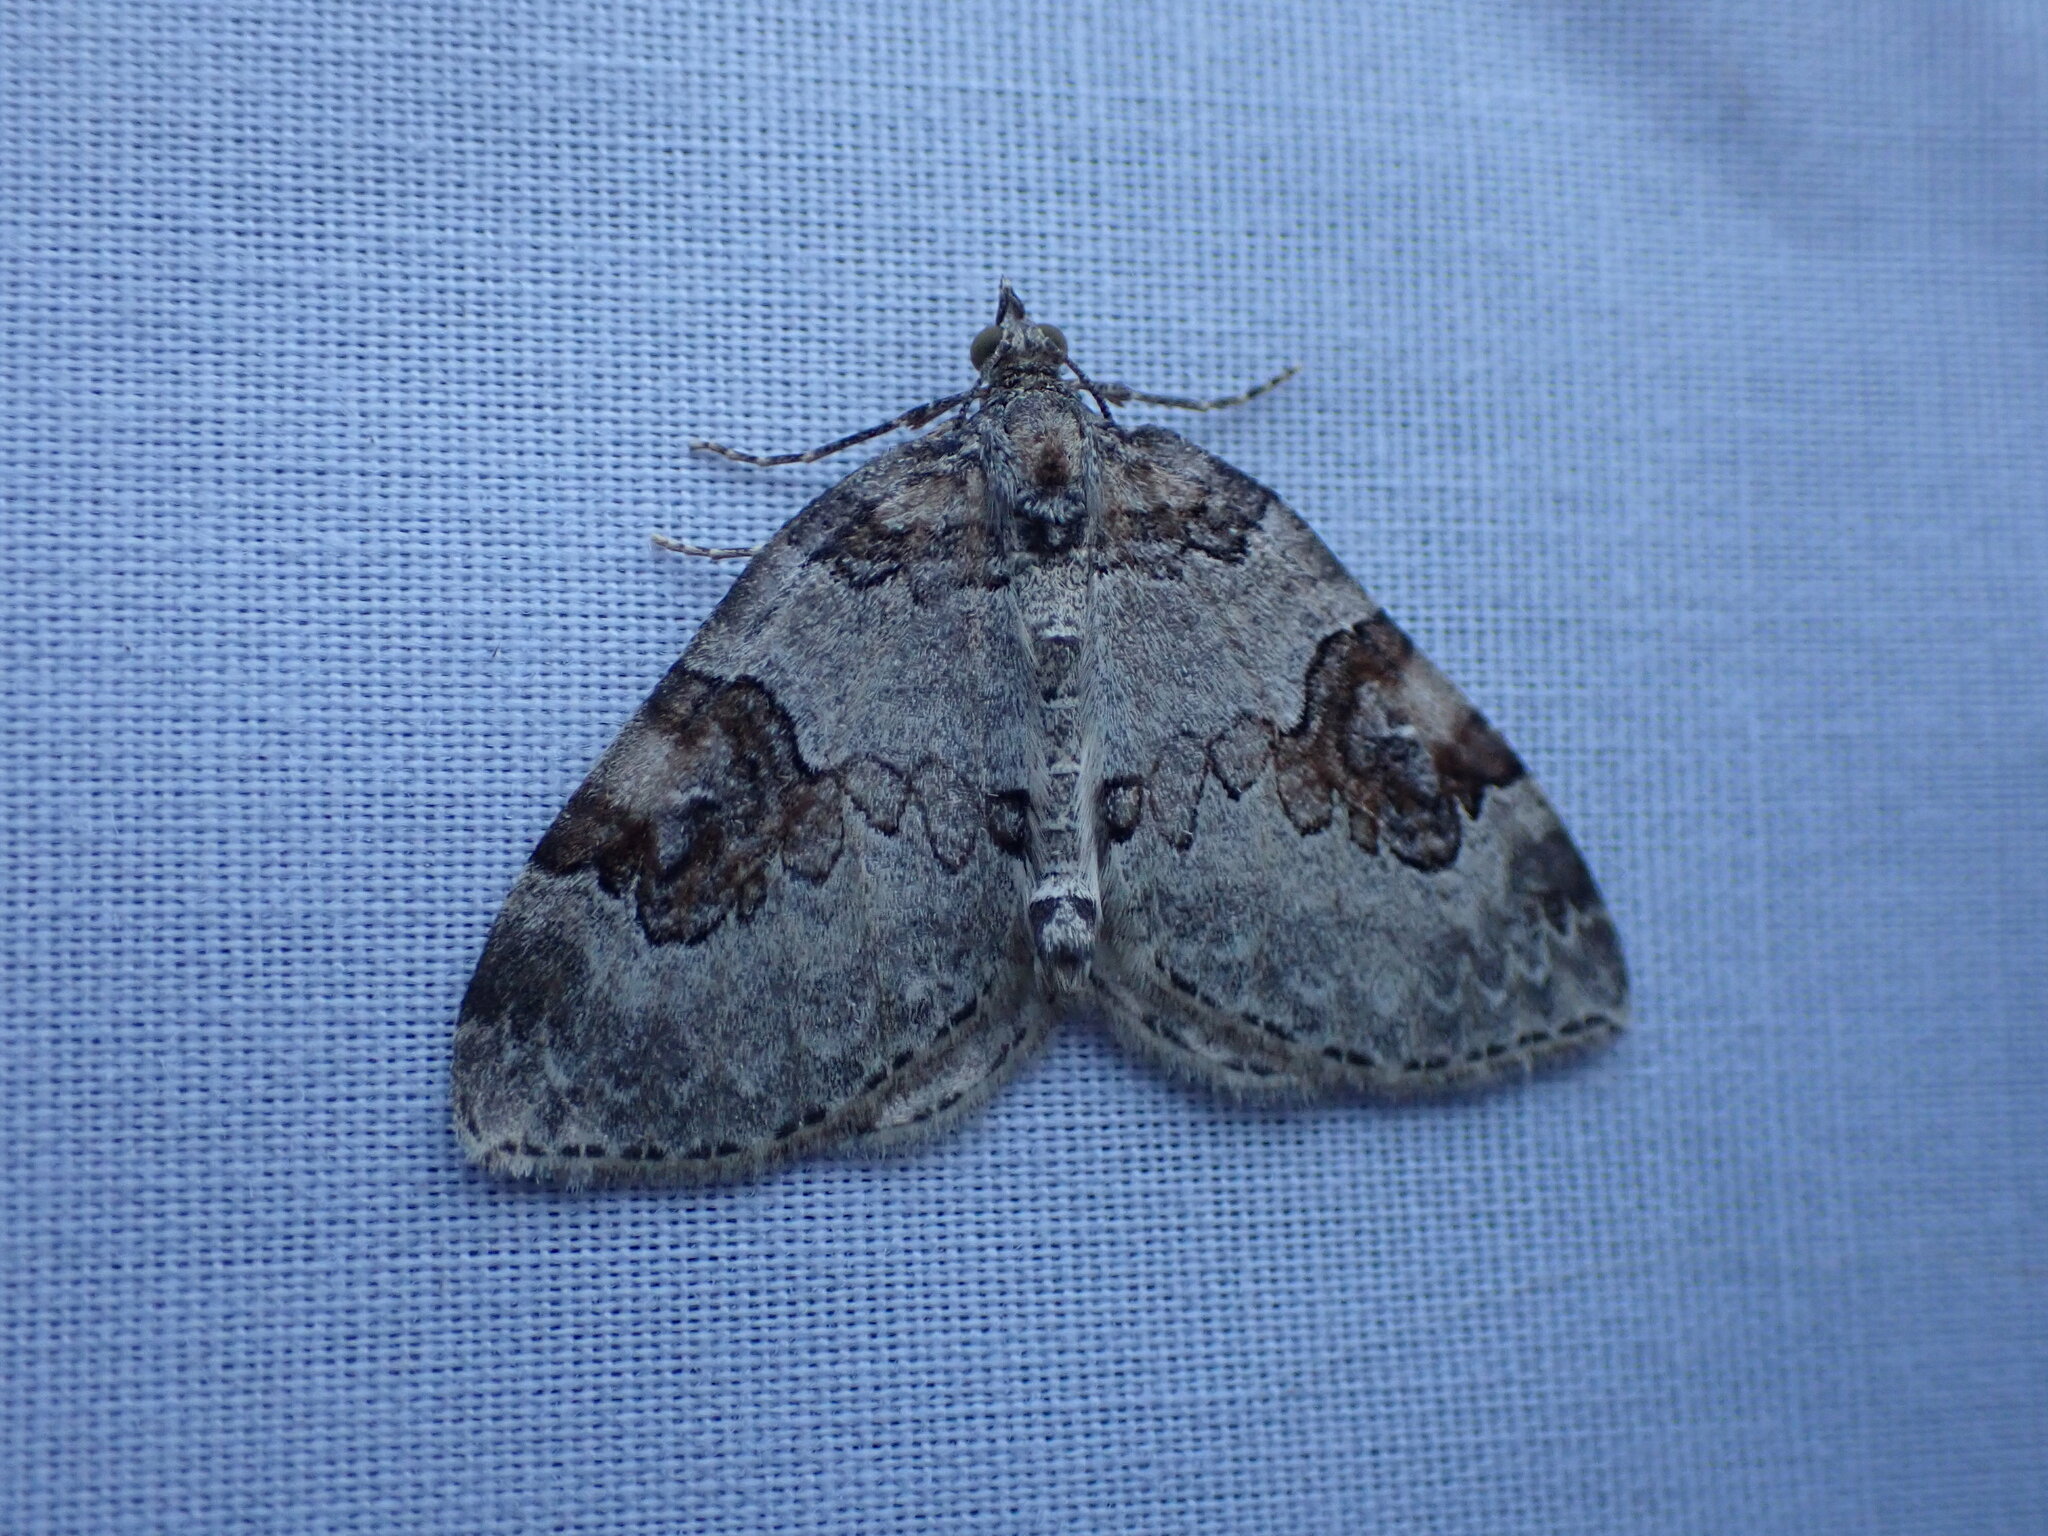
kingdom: Animalia
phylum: Arthropoda
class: Insecta
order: Lepidoptera
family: Geometridae
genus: Plemyria
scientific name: Plemyria georgii
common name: George's carpet moth
